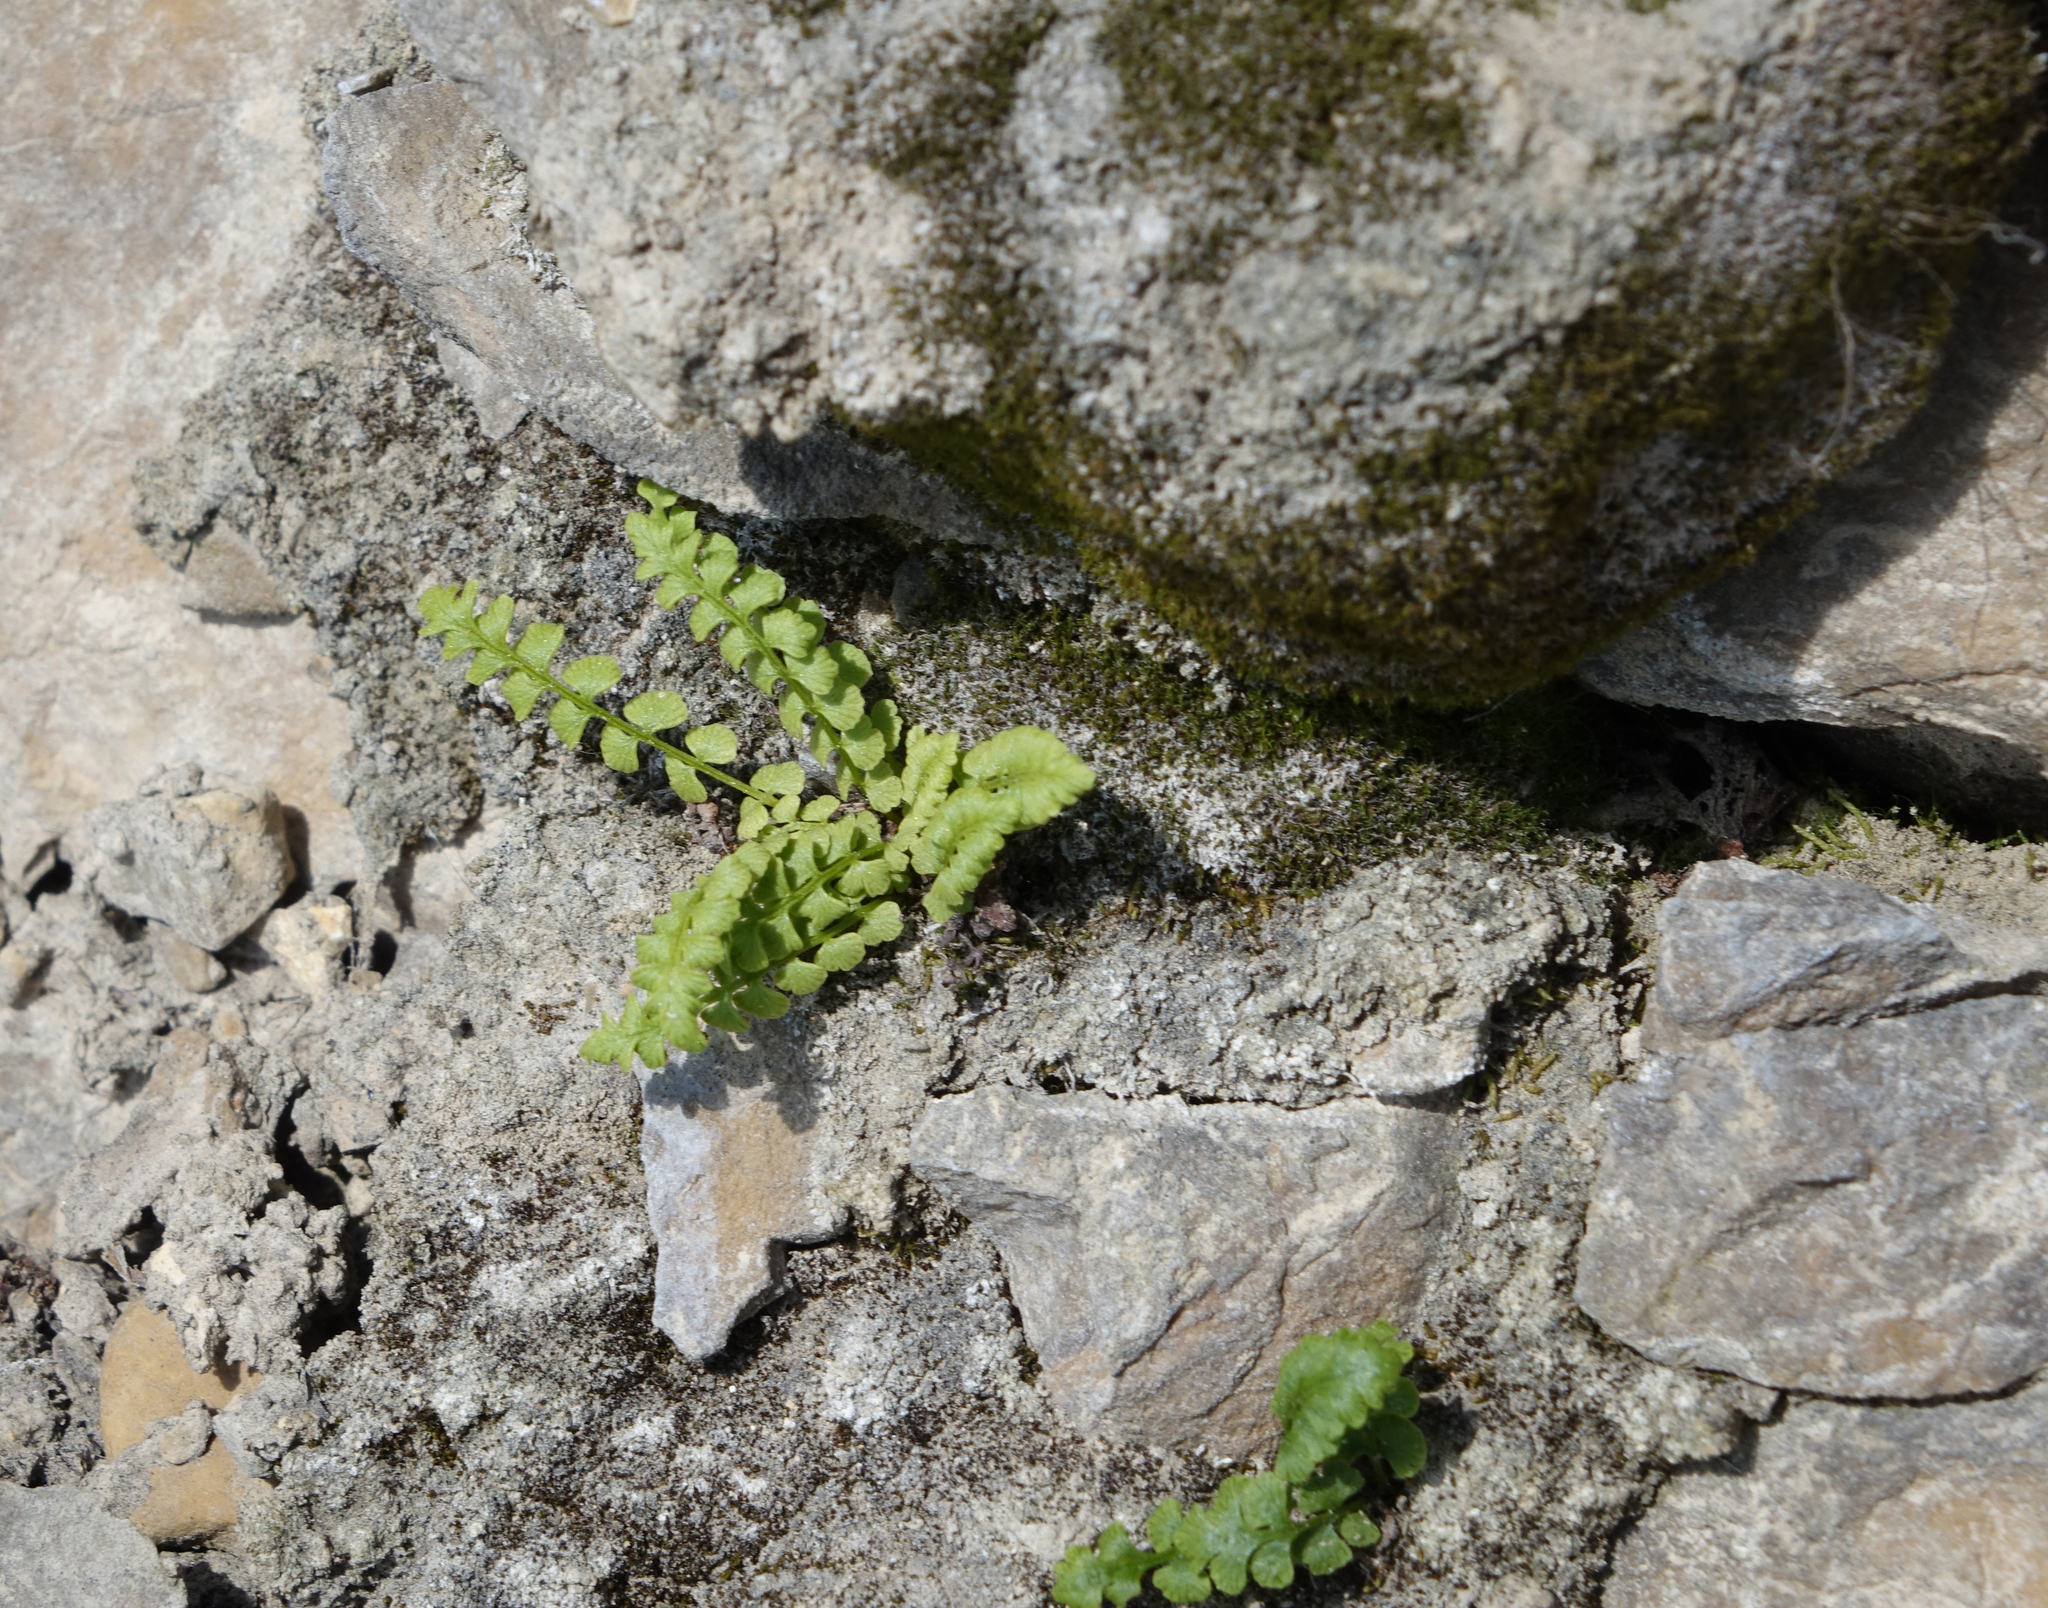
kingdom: Plantae
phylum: Tracheophyta
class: Polypodiopsida
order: Polypodiales
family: Woodsiaceae
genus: Woodsia
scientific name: Woodsia glabella
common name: Smooth woodsia
